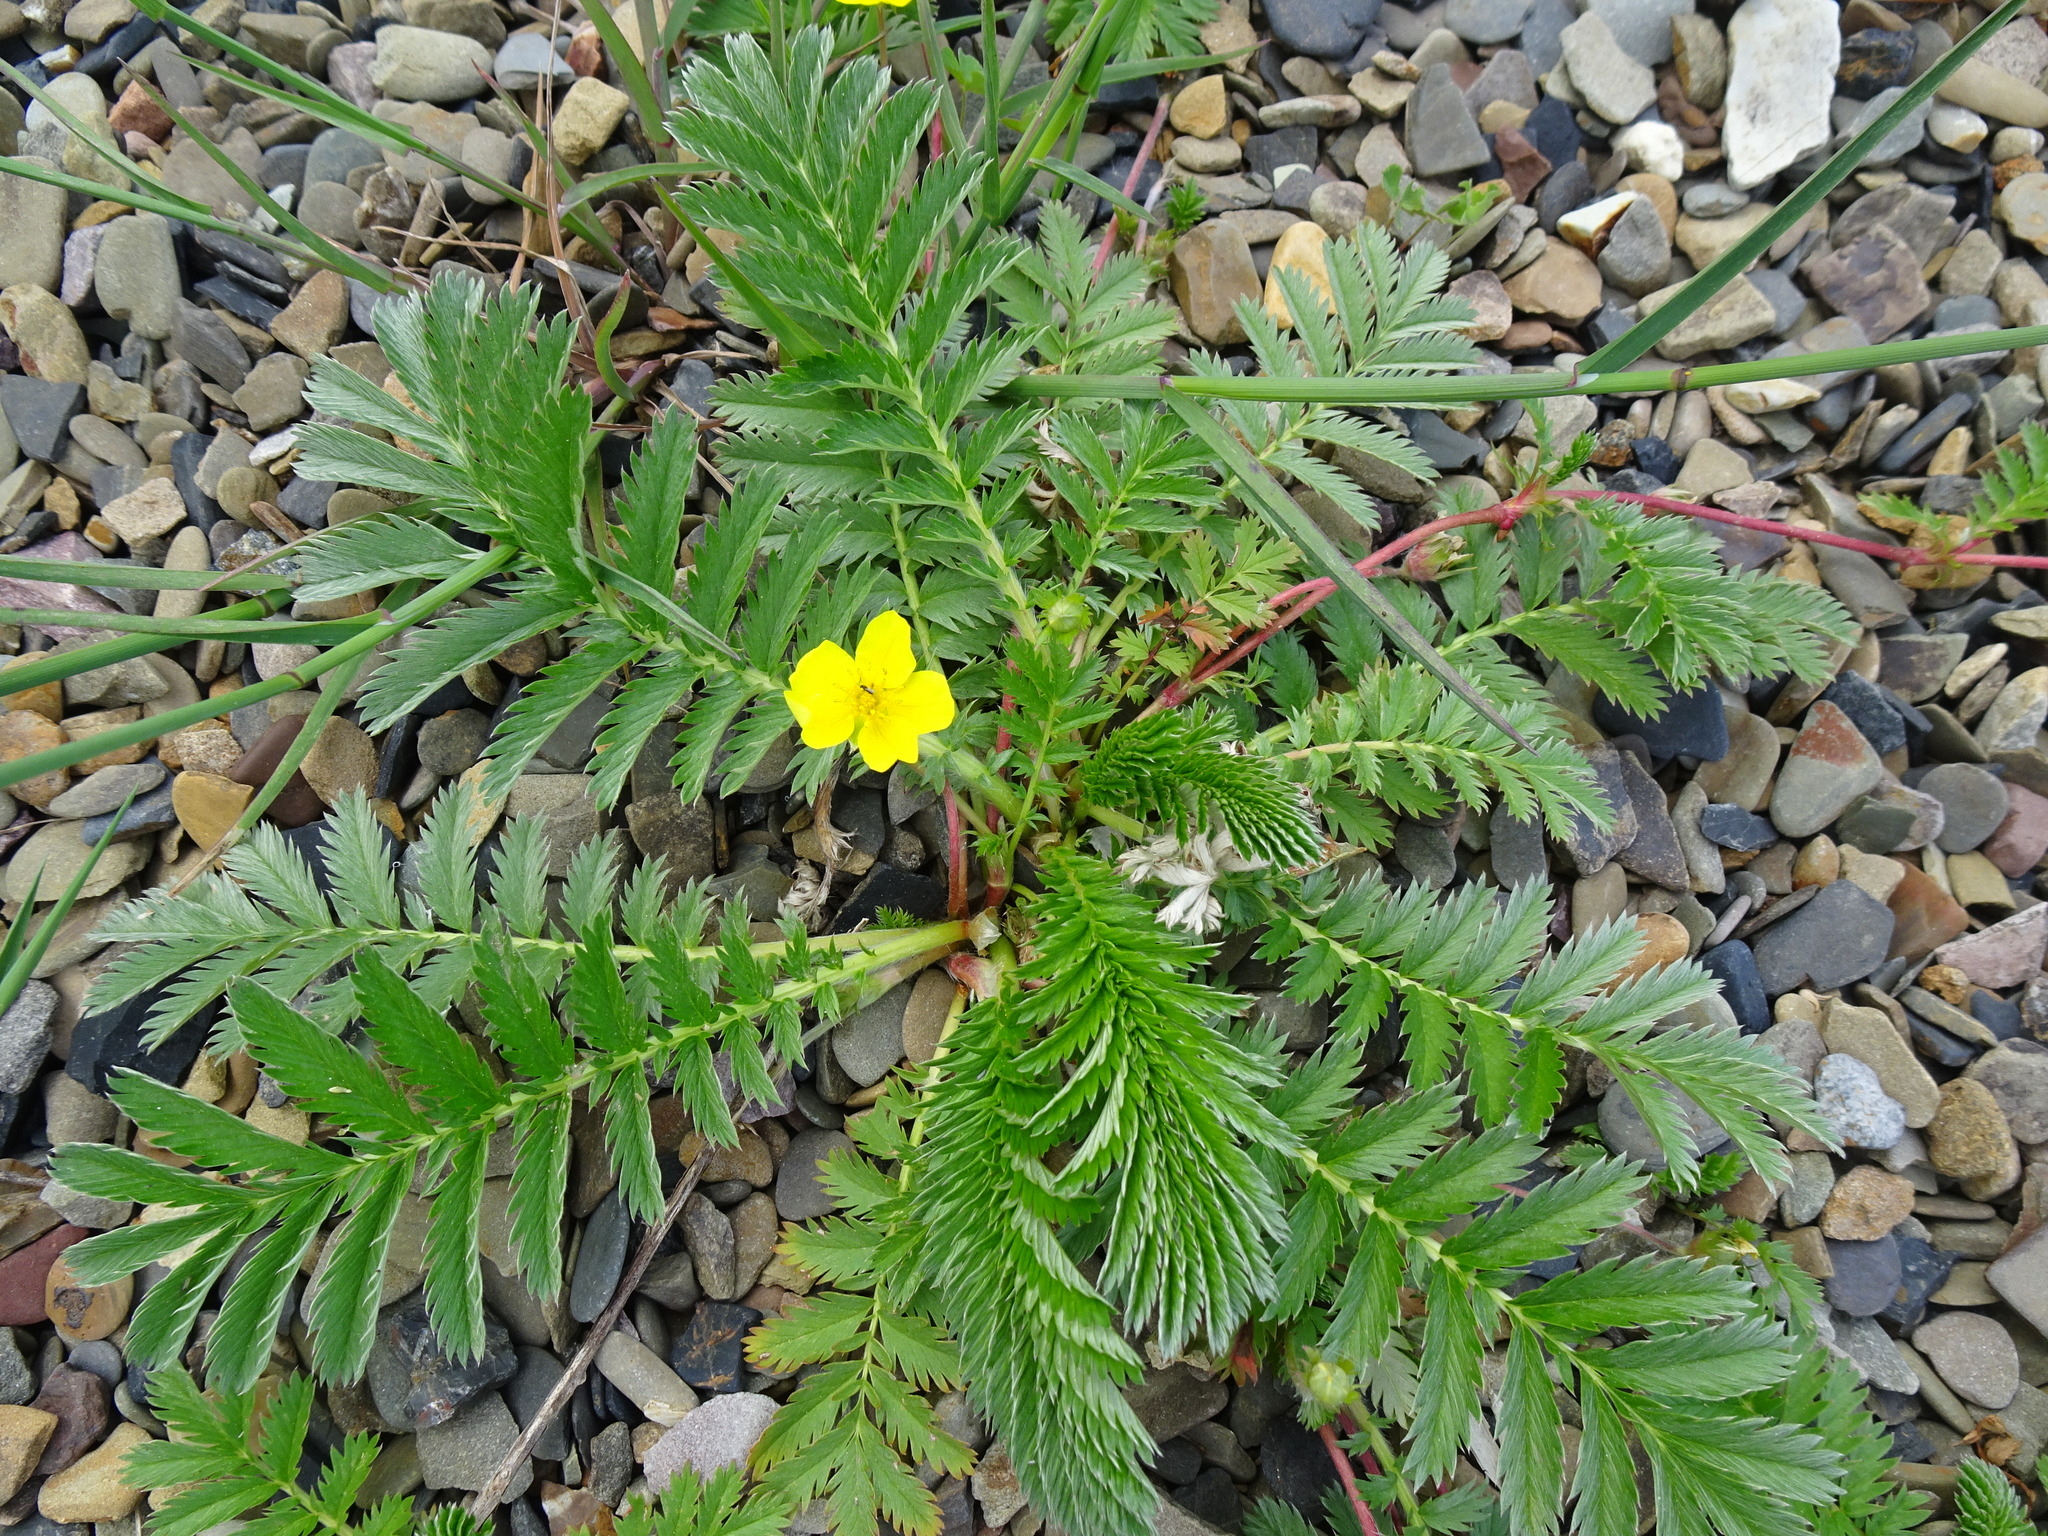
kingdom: Plantae
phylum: Tracheophyta
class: Magnoliopsida
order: Rosales
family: Rosaceae
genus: Argentina
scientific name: Argentina anserina
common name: Common silverweed
